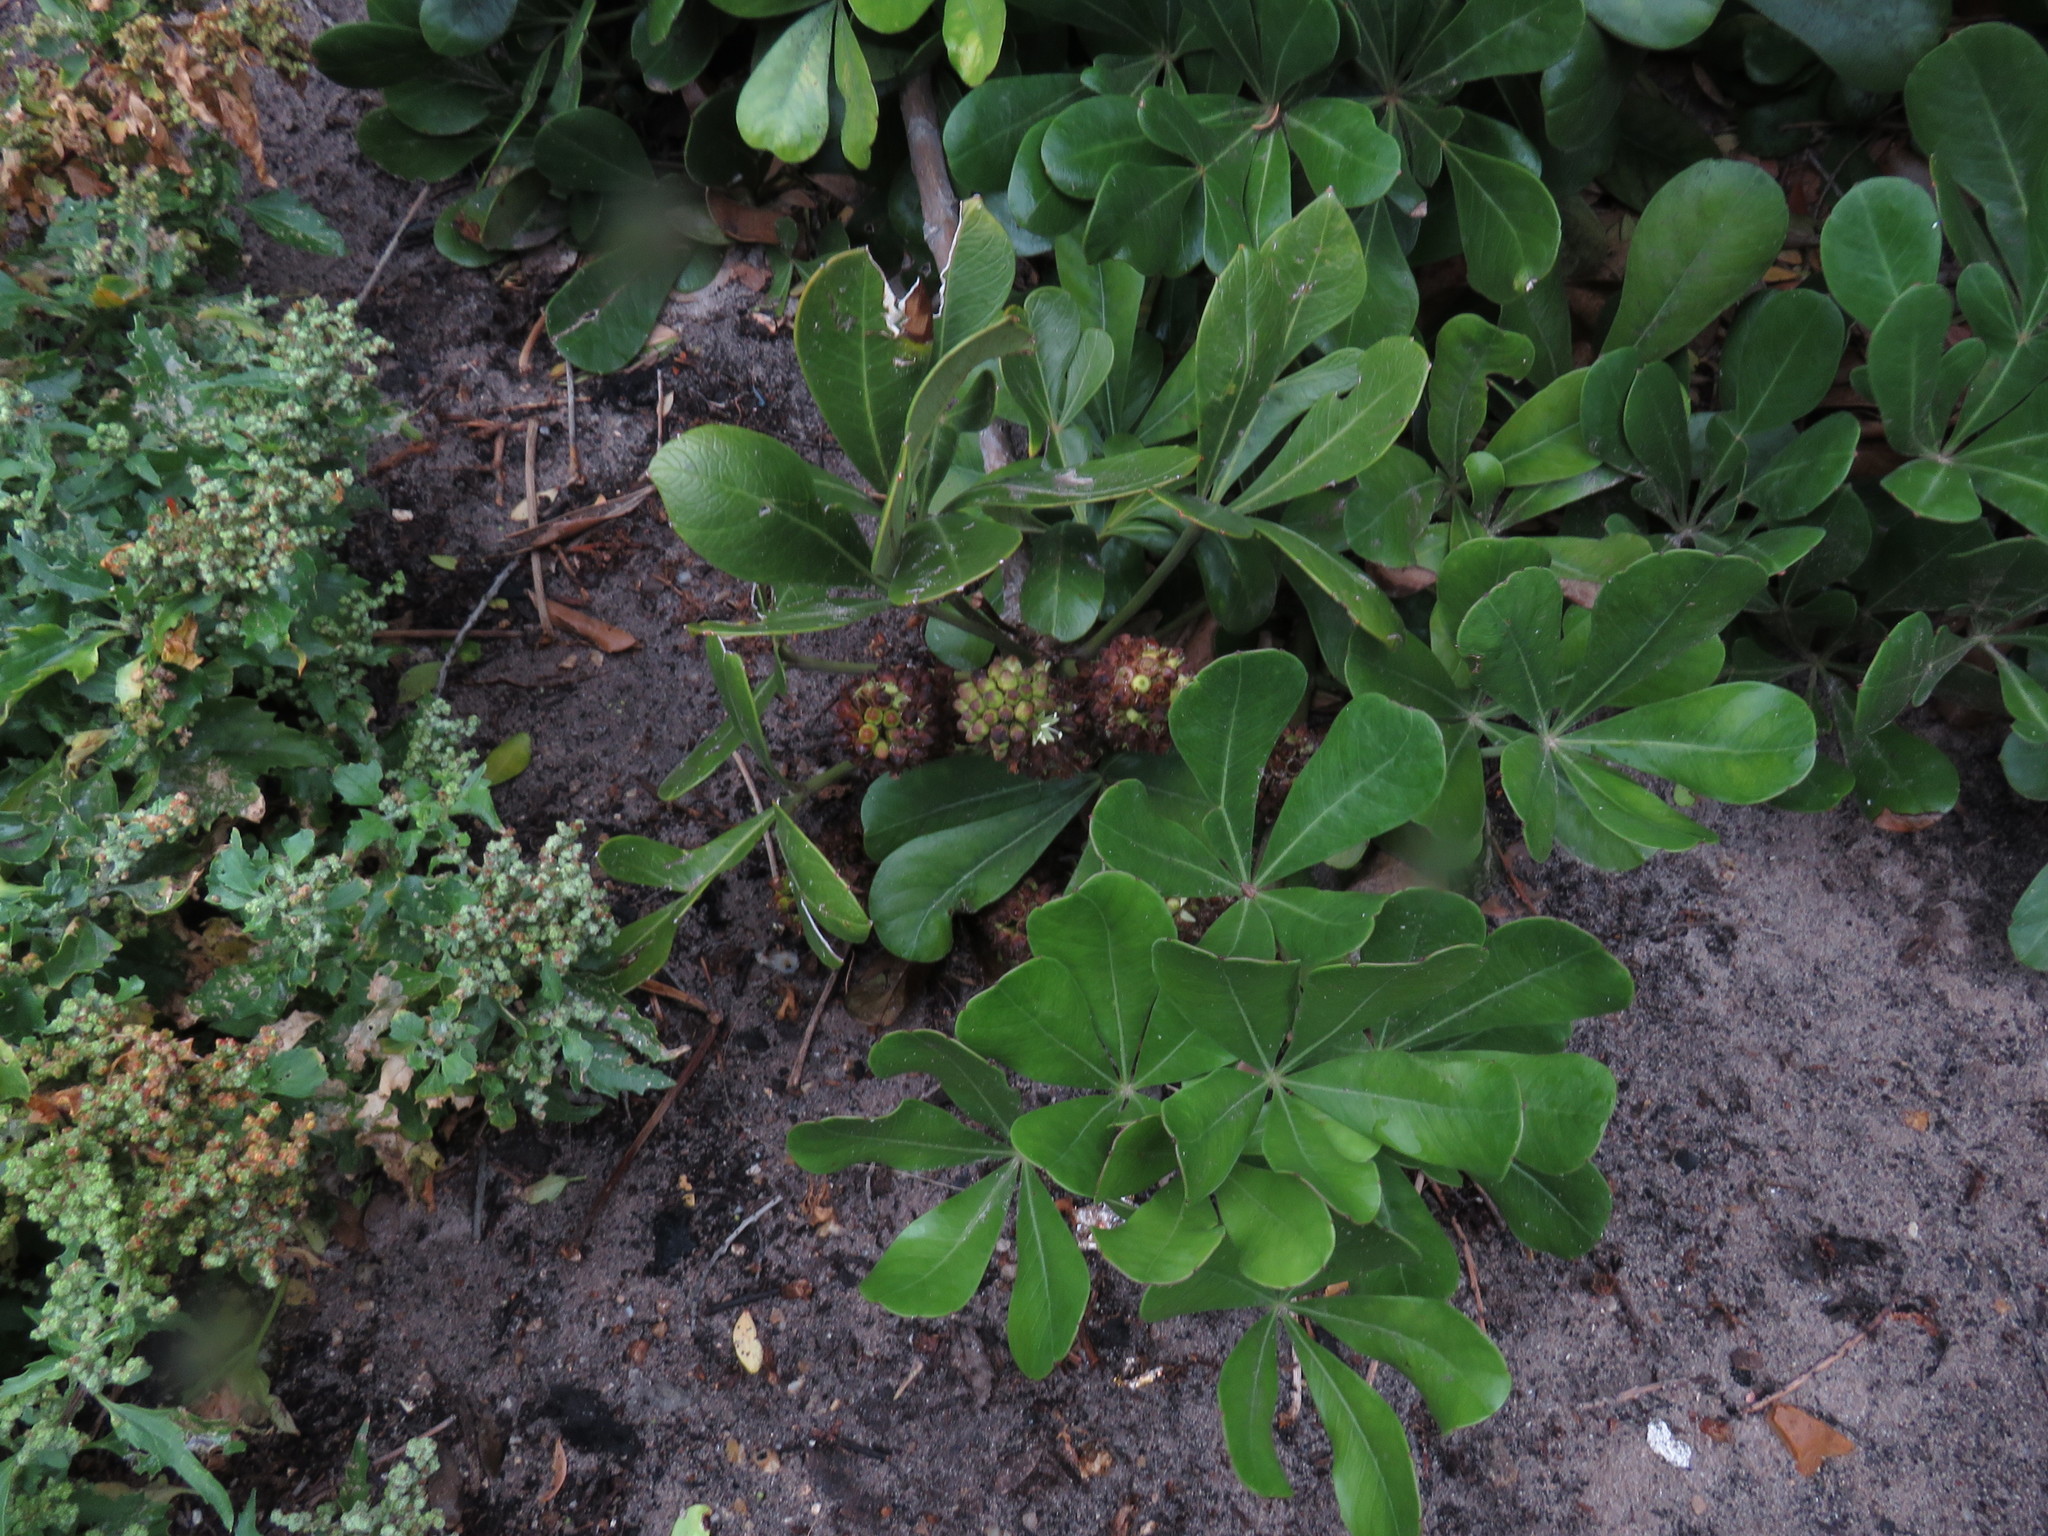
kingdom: Plantae
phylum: Tracheophyta
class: Magnoliopsida
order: Apiales
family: Araliaceae
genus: Cussonia
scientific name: Cussonia thyrsiflora
